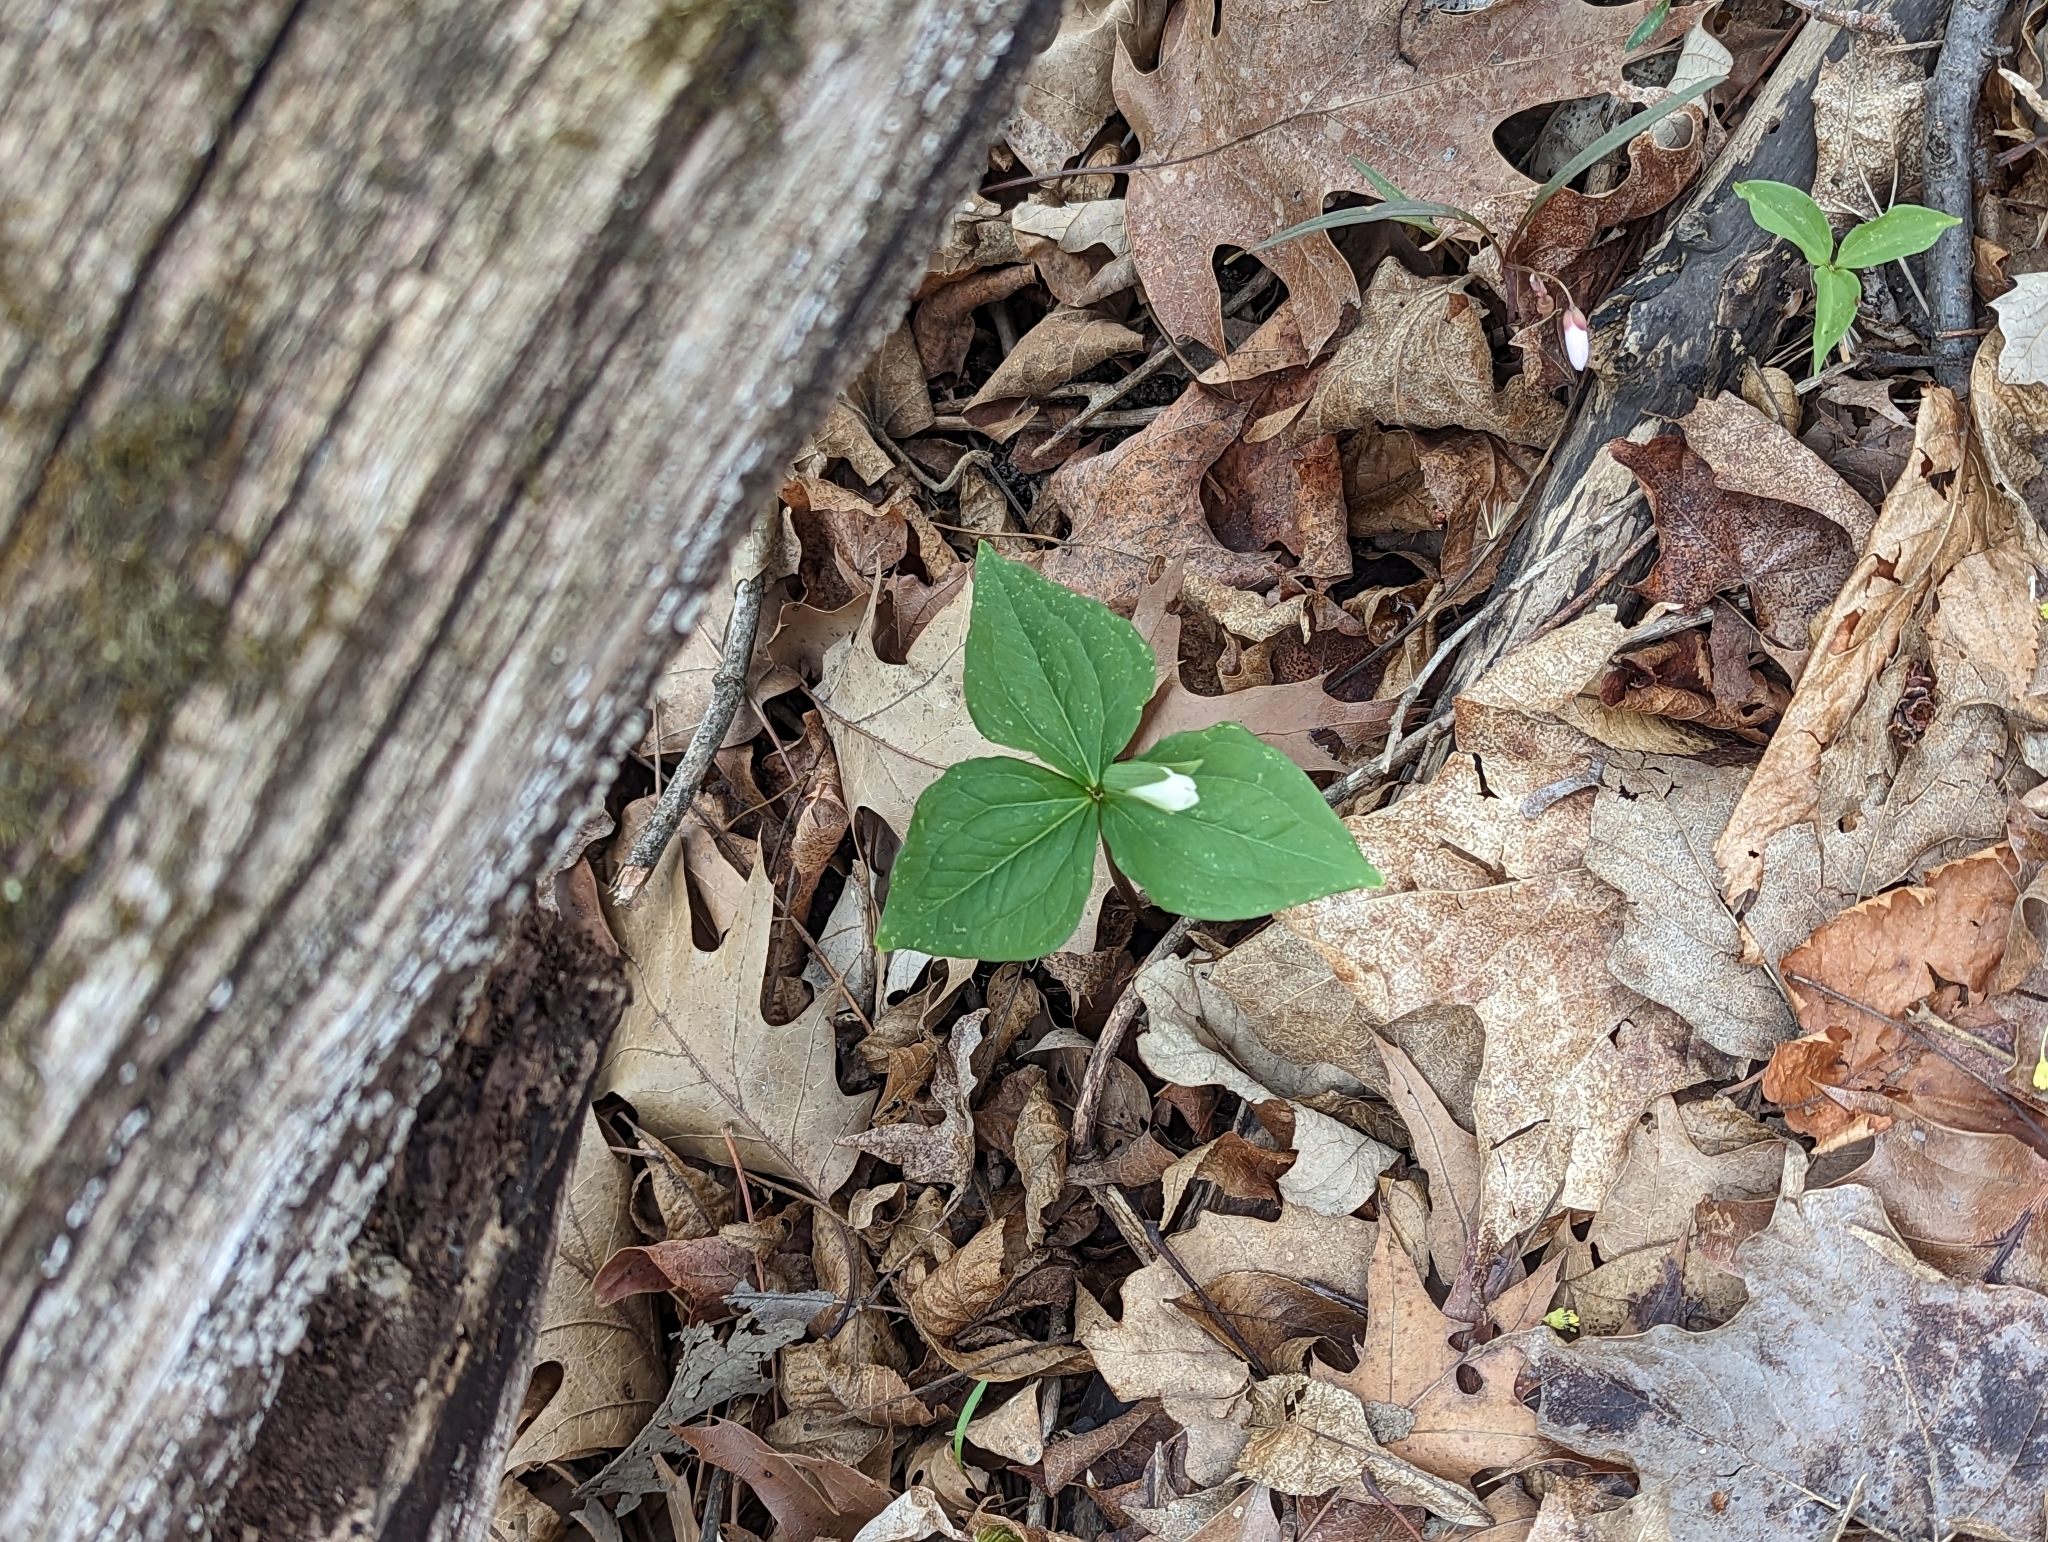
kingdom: Plantae
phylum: Tracheophyta
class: Liliopsida
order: Liliales
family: Melanthiaceae
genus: Trillium
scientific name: Trillium grandiflorum
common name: Great white trillium
